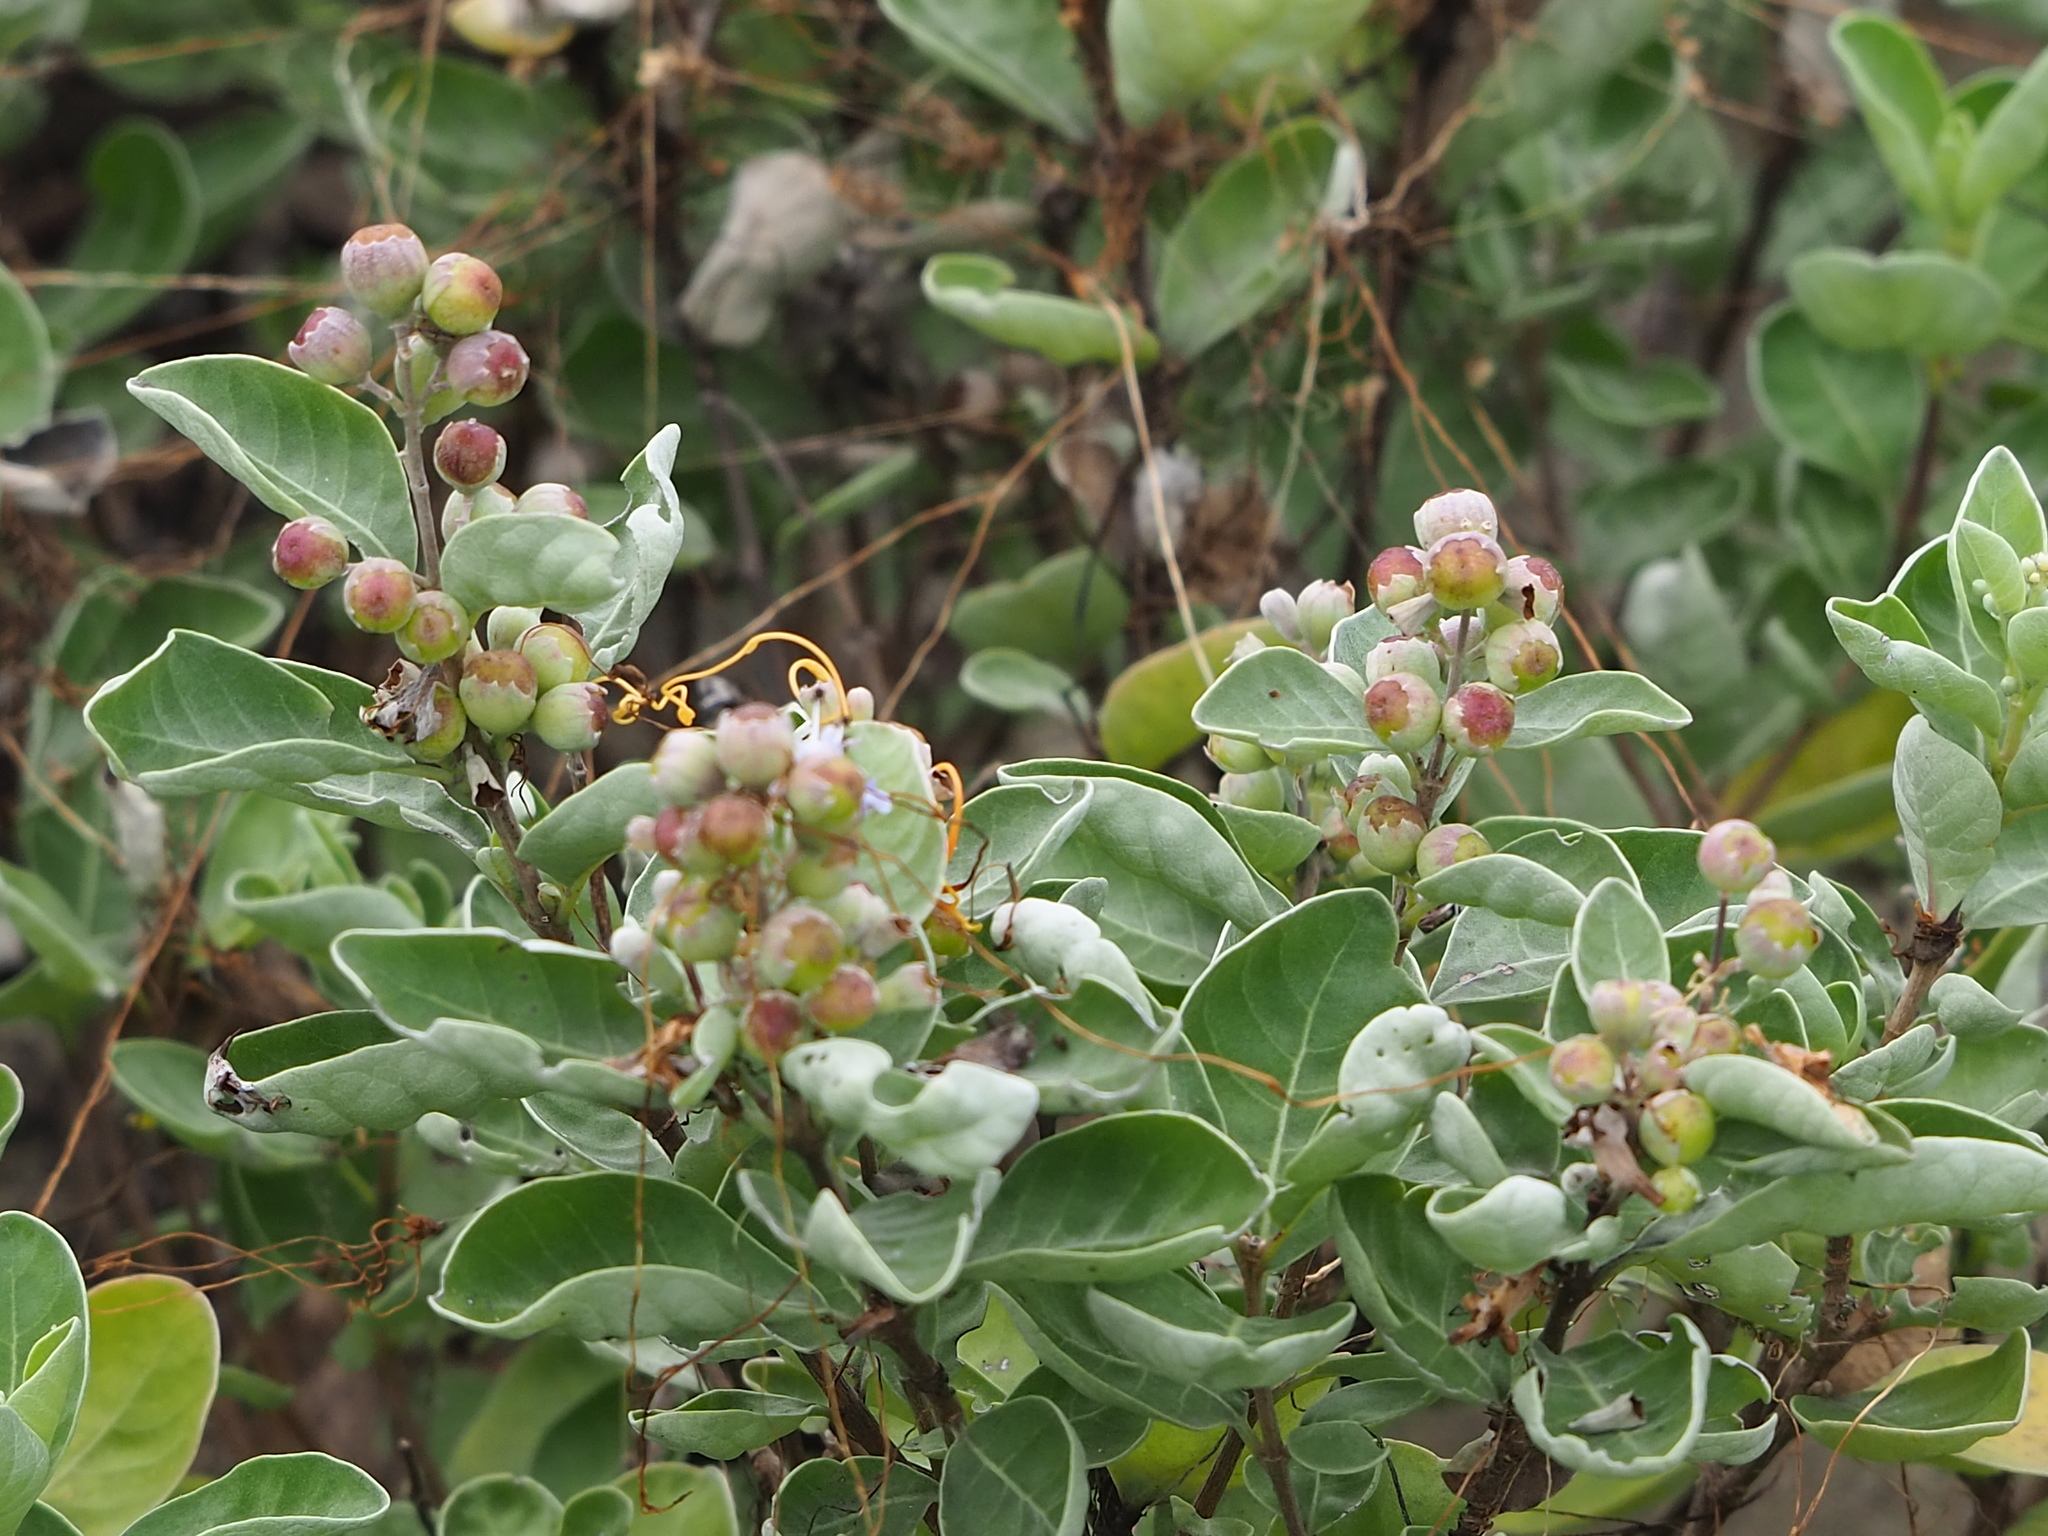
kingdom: Plantae
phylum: Tracheophyta
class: Magnoliopsida
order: Lamiales
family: Lamiaceae
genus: Vitex
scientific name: Vitex rotundifolia
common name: Beach vitex
